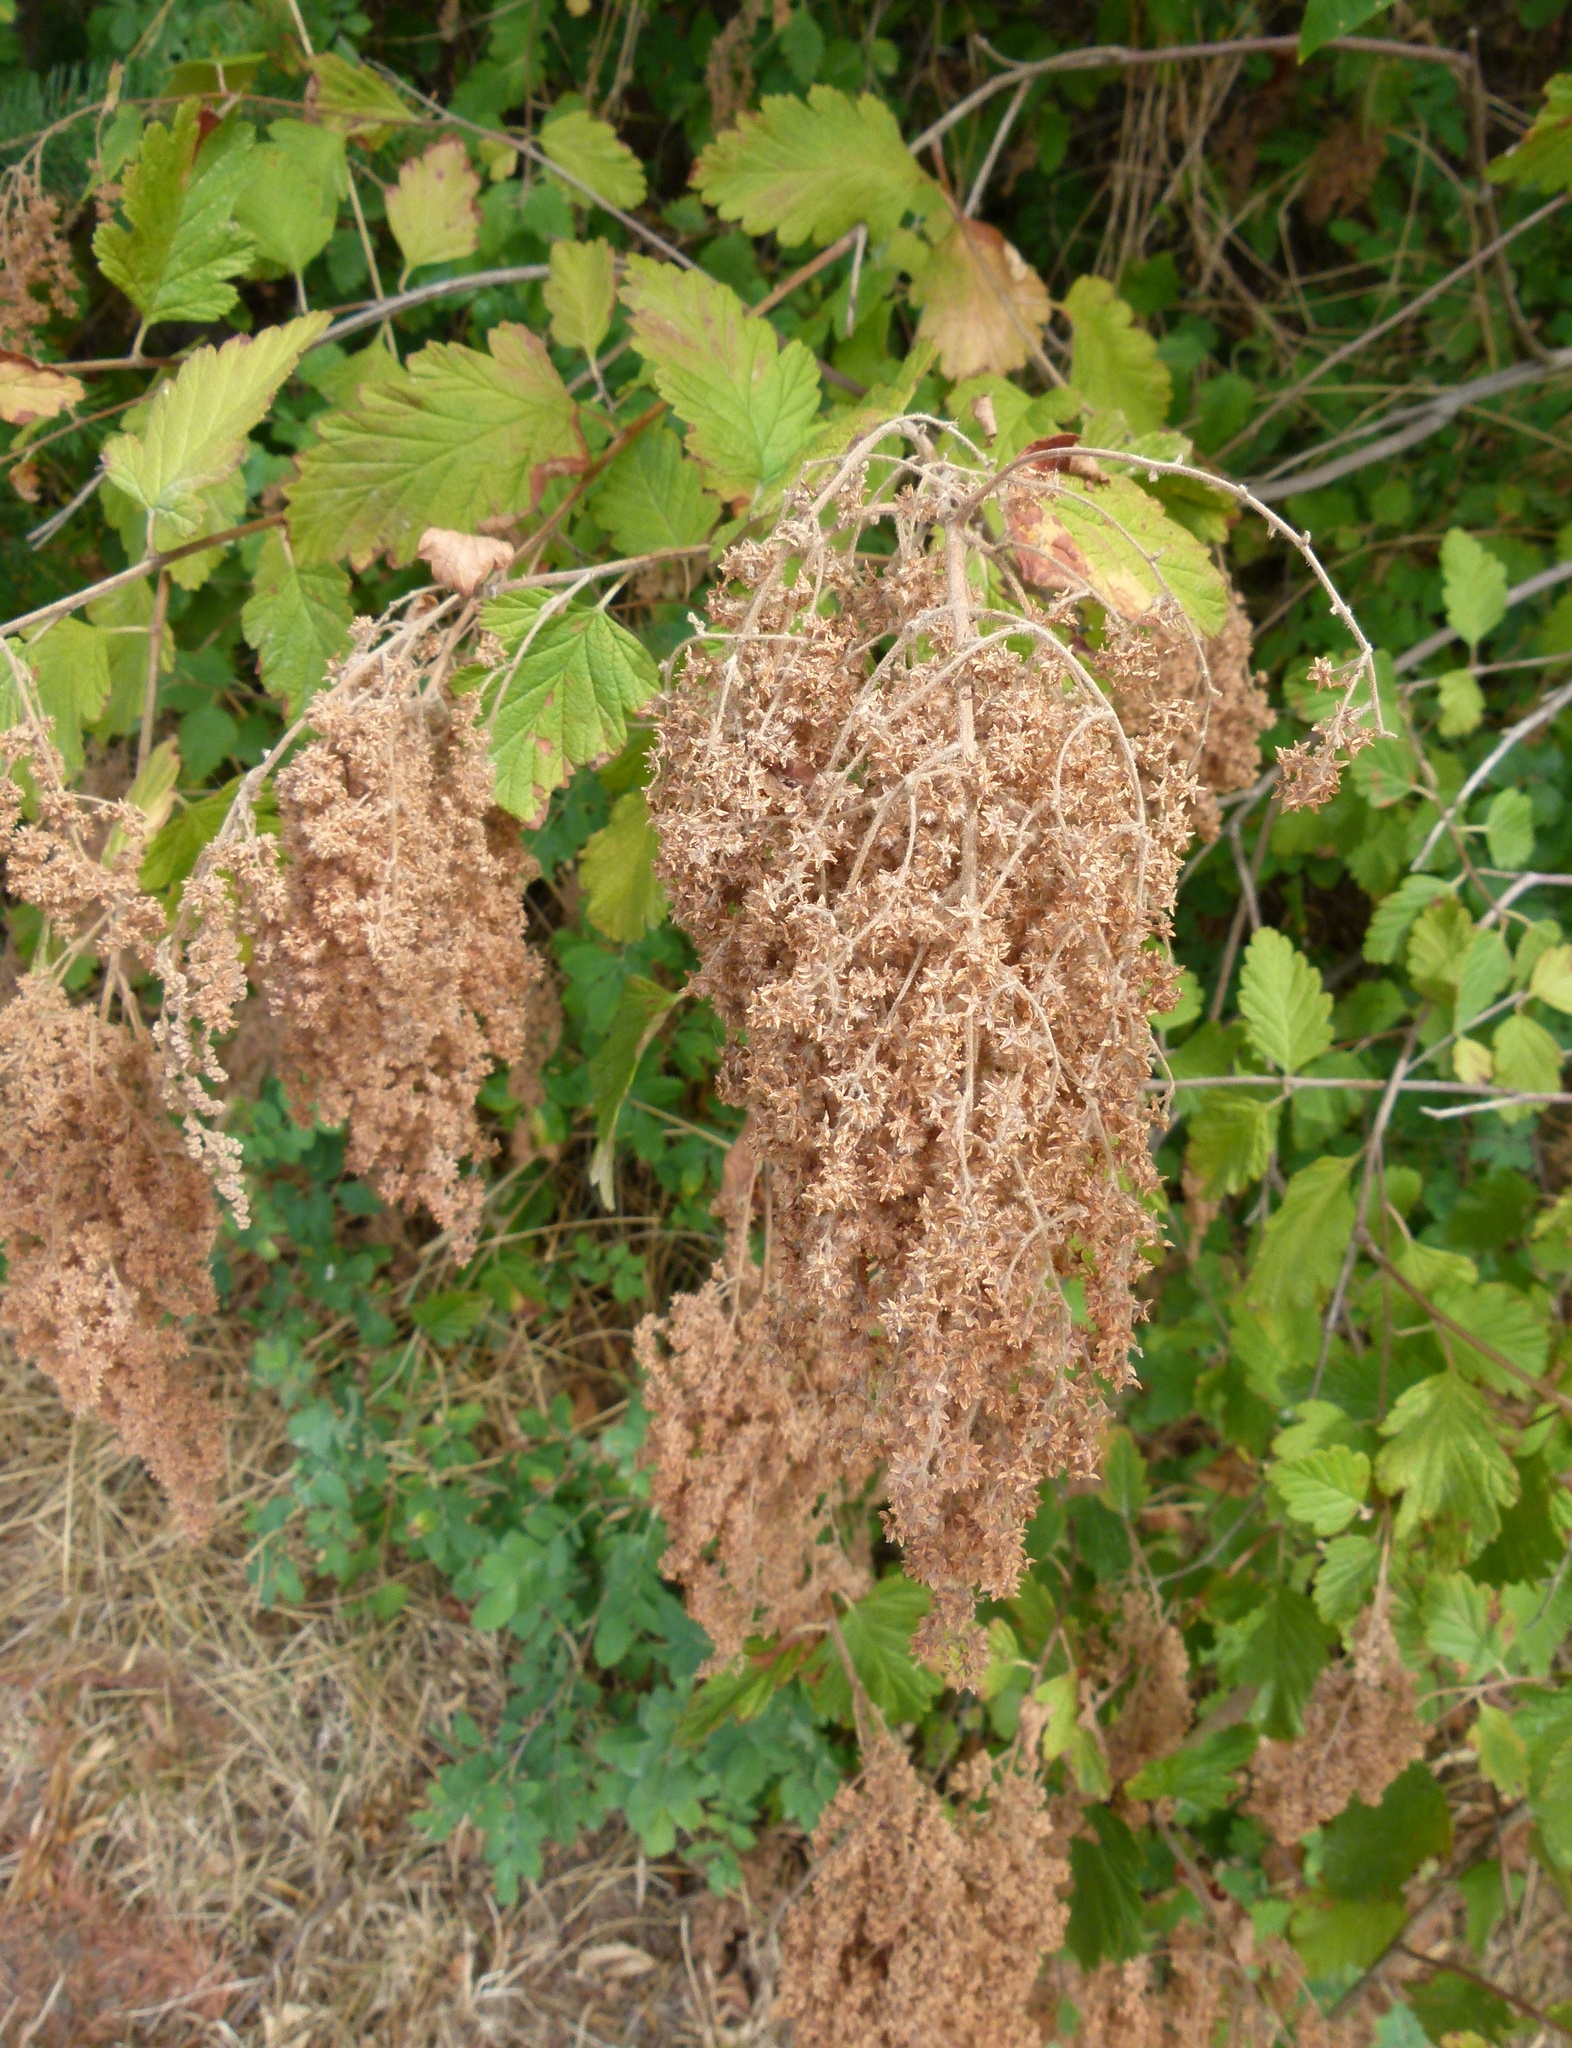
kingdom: Plantae
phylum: Tracheophyta
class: Magnoliopsida
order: Rosales
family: Rosaceae
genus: Holodiscus
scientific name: Holodiscus discolor
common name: Oceanspray
